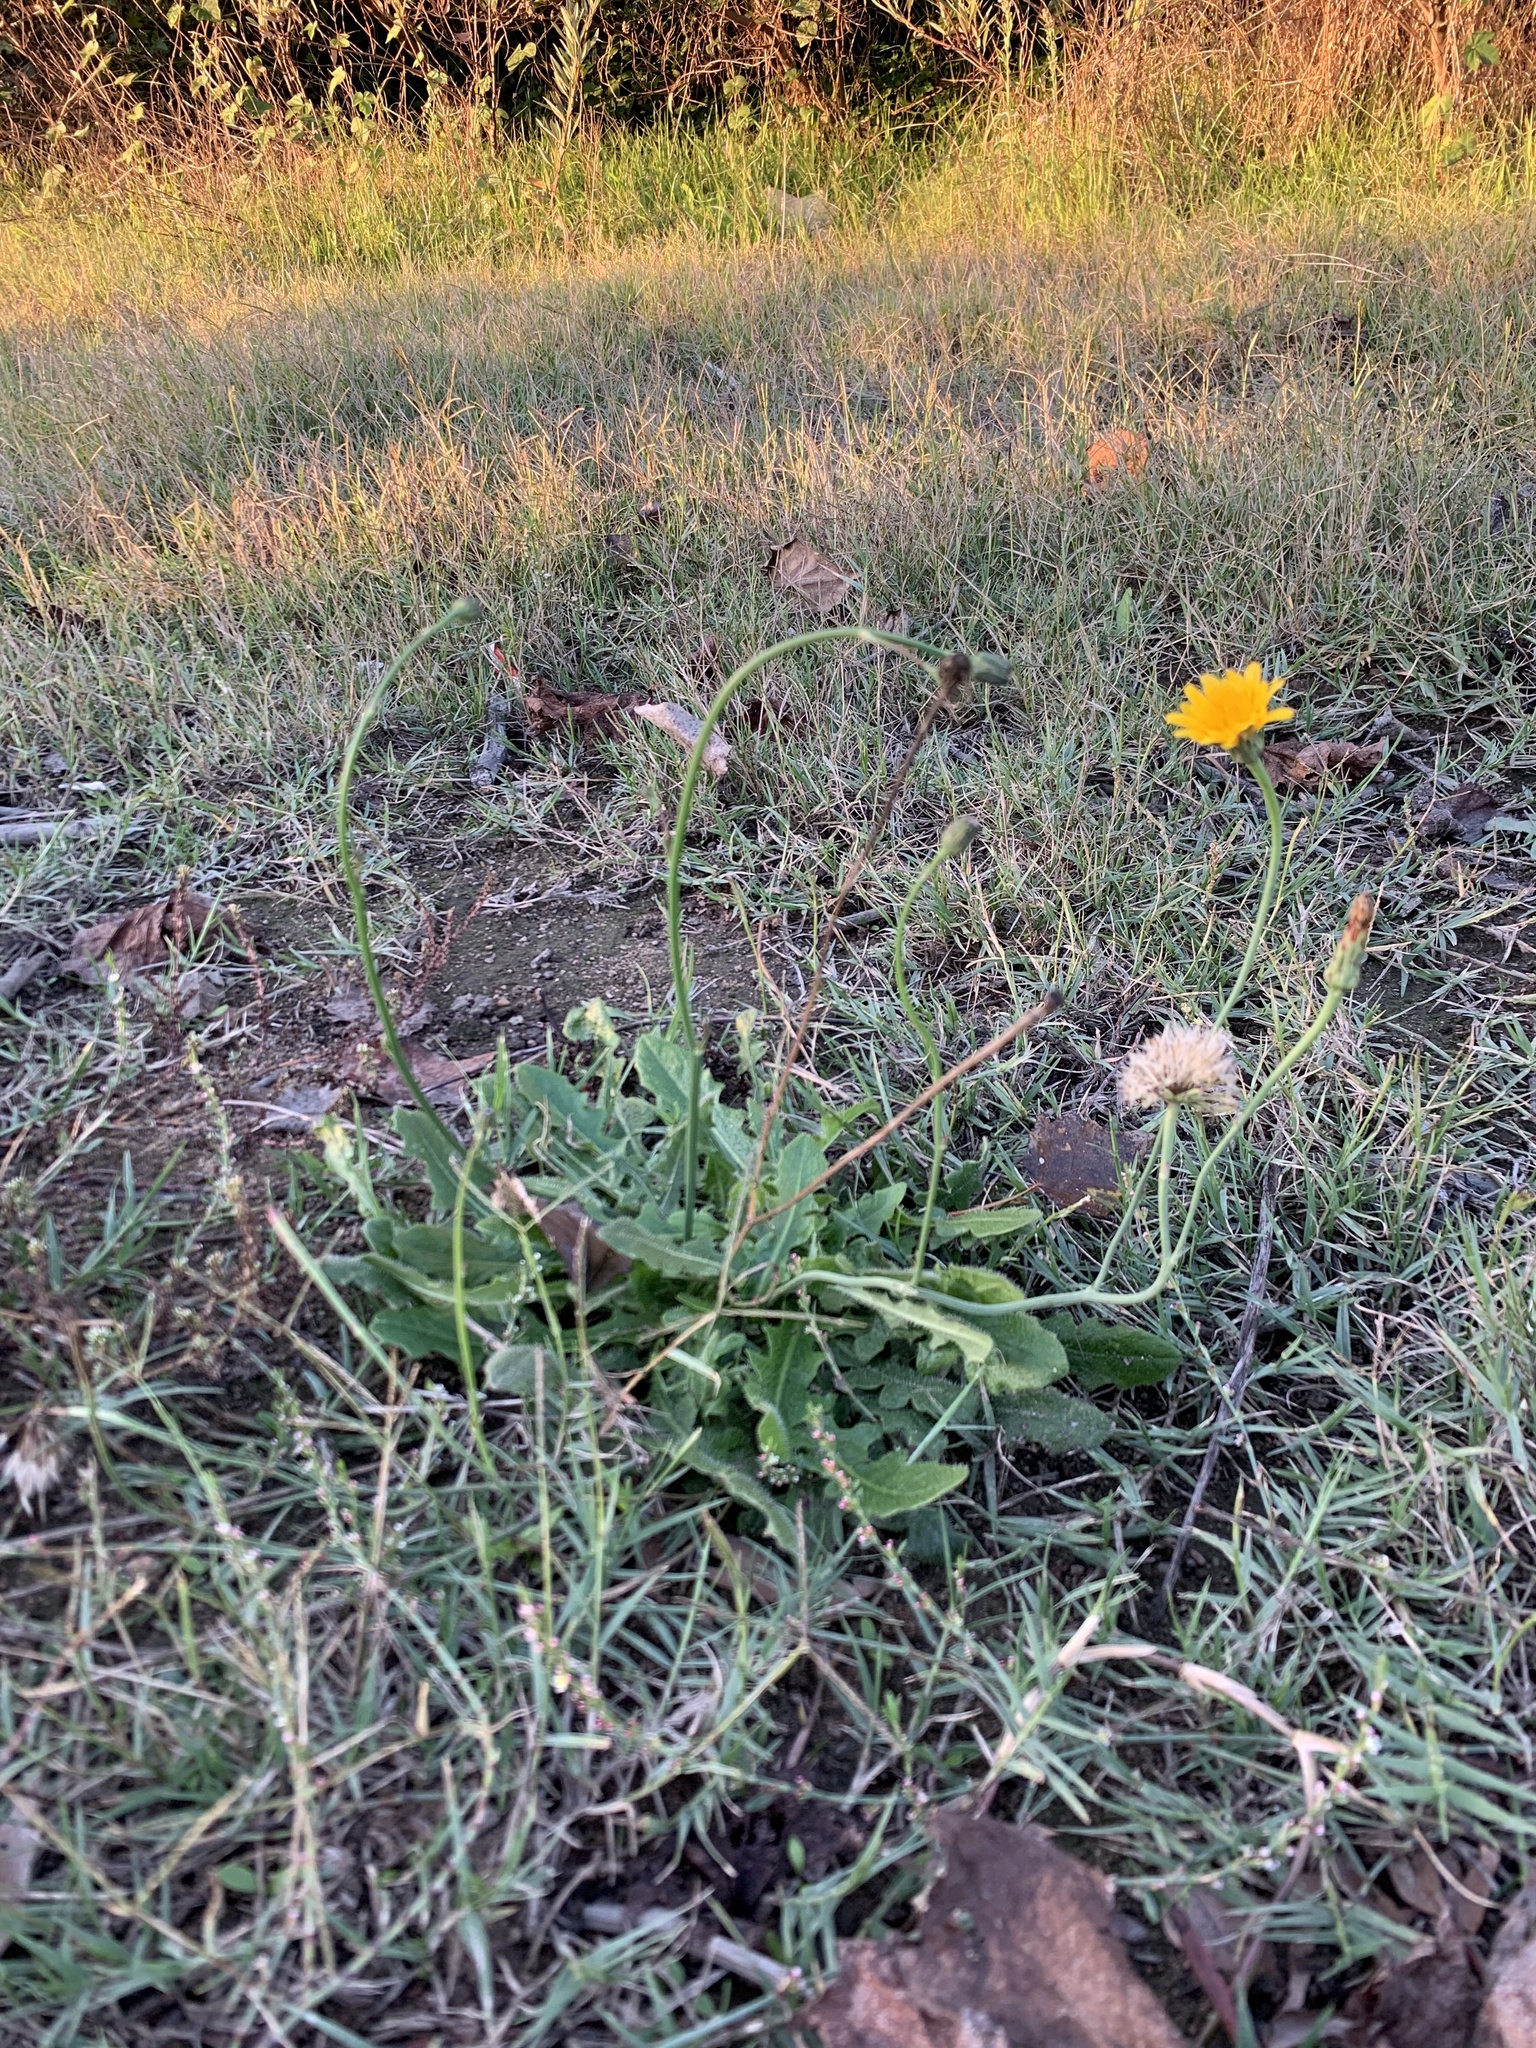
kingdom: Plantae
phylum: Tracheophyta
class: Magnoliopsida
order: Asterales
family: Asteraceae
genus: Hypochaeris
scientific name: Hypochaeris radicata
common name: Flatweed
